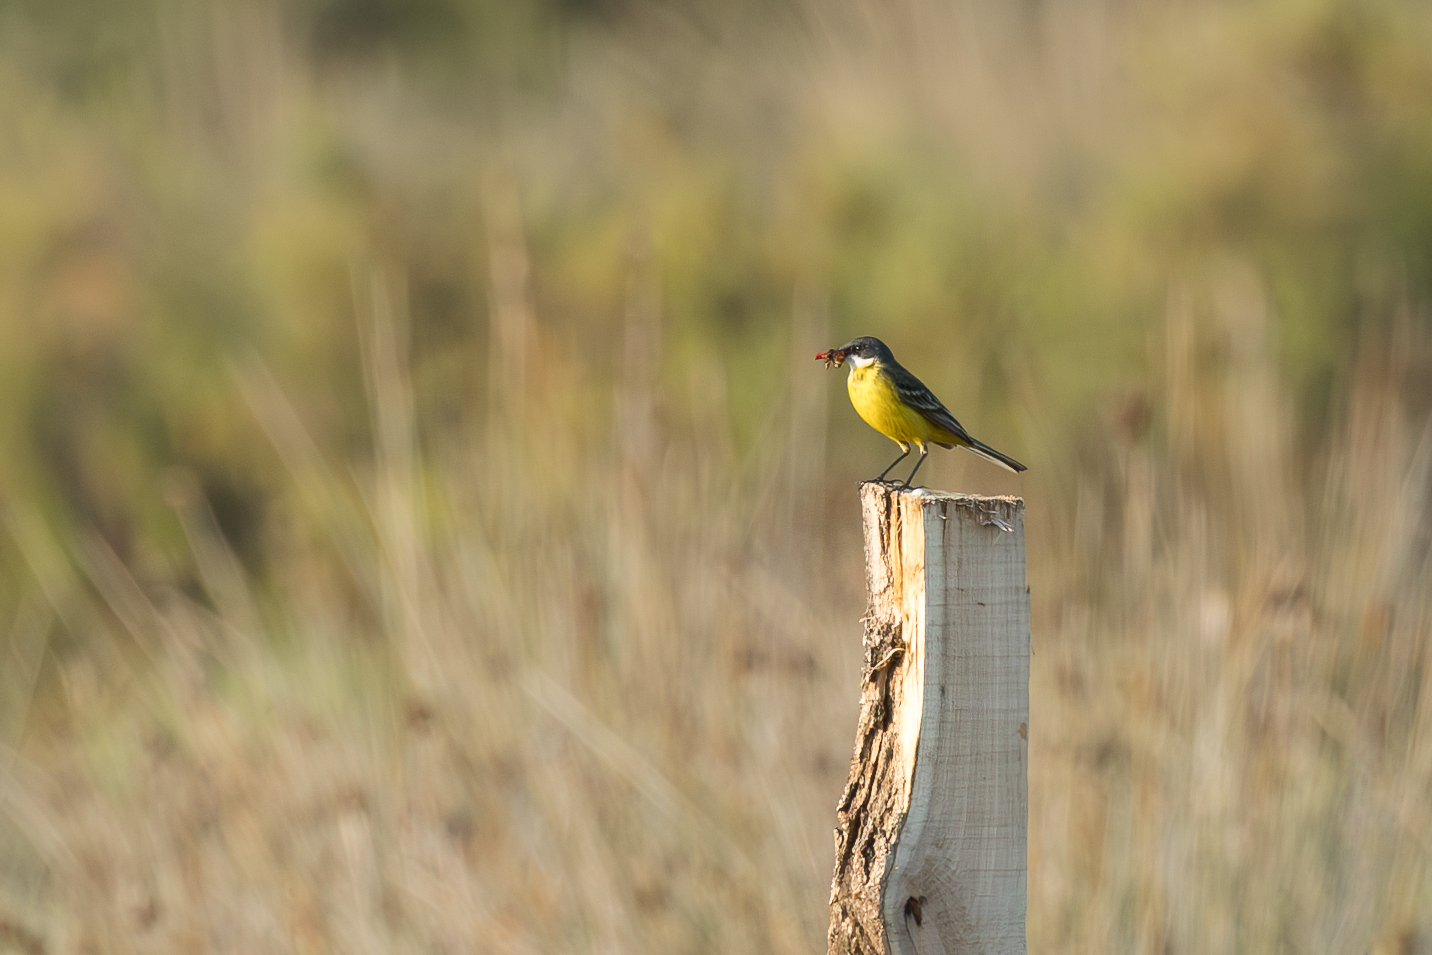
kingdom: Animalia
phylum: Chordata
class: Aves
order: Passeriformes
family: Motacillidae
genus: Motacilla
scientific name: Motacilla flava
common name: Western yellow wagtail
